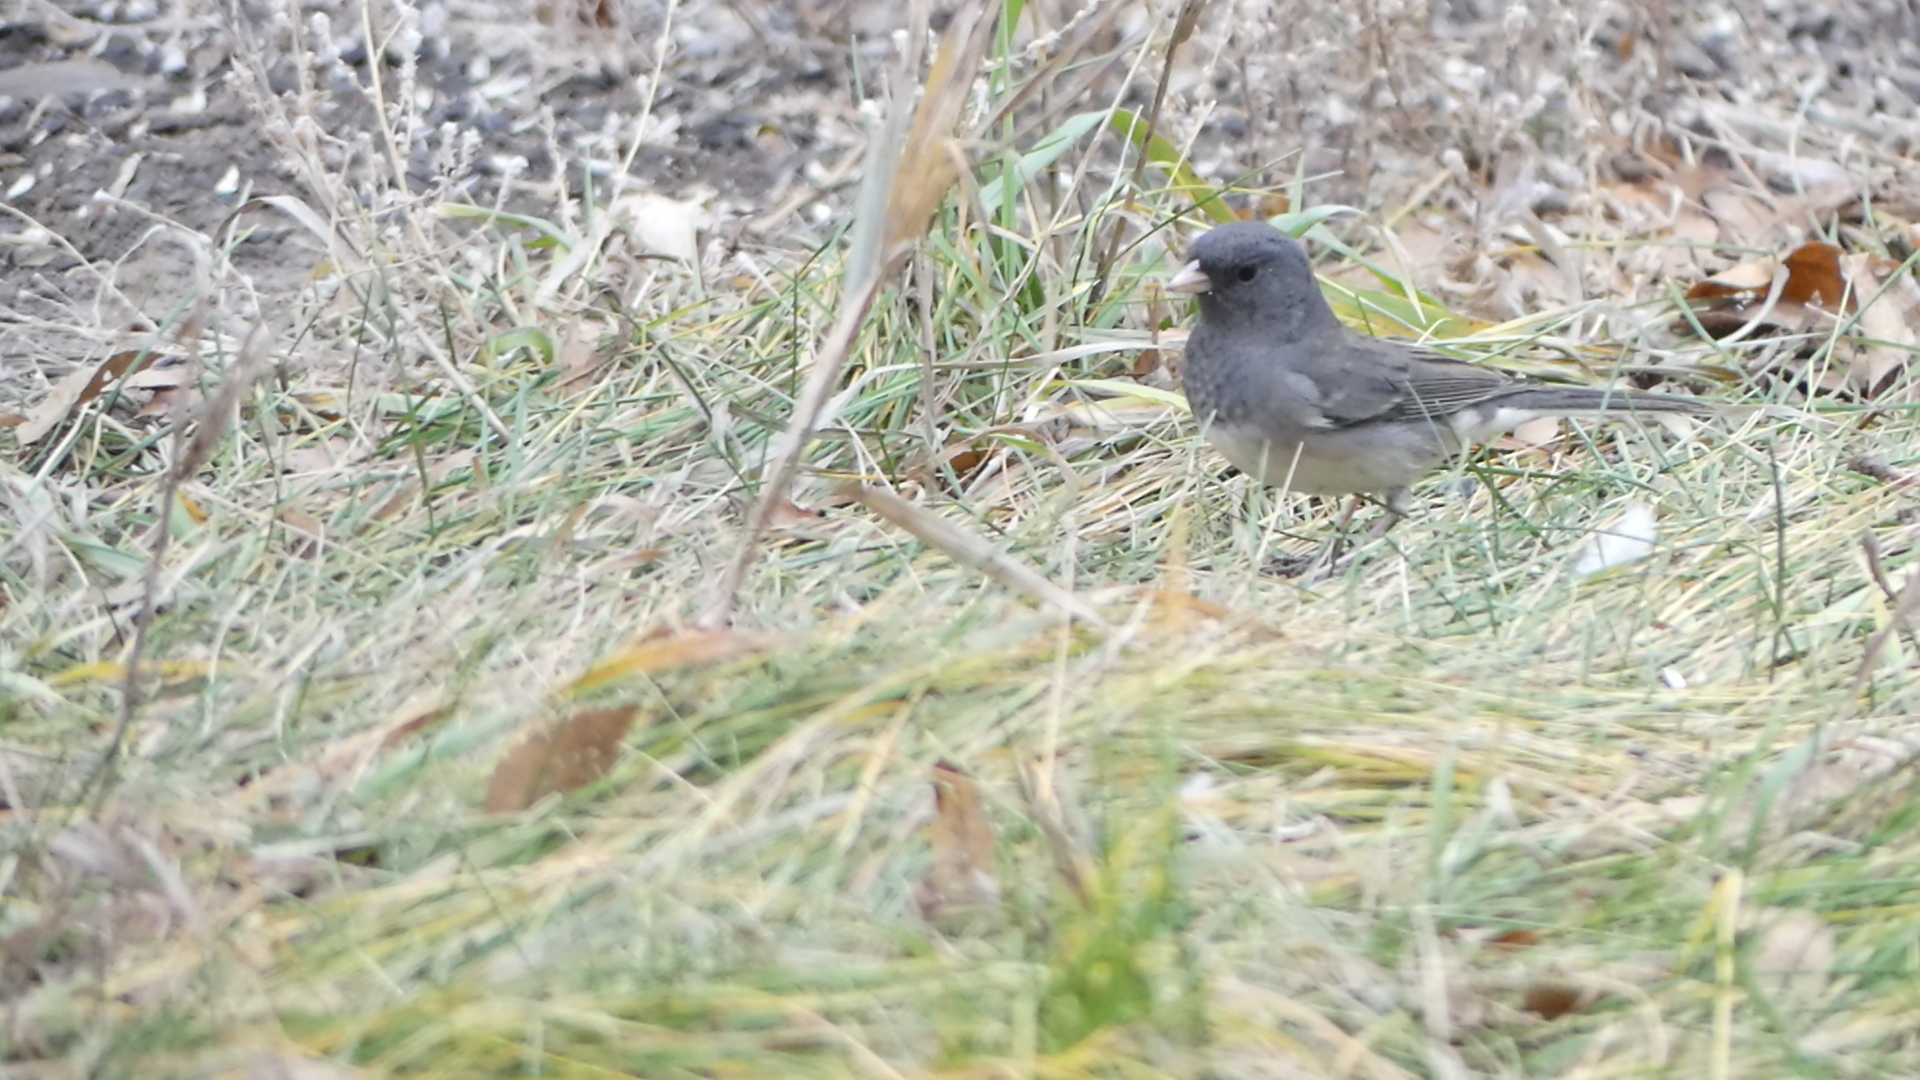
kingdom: Animalia
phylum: Chordata
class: Aves
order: Passeriformes
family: Passerellidae
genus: Junco
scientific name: Junco hyemalis
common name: Dark-eyed junco
